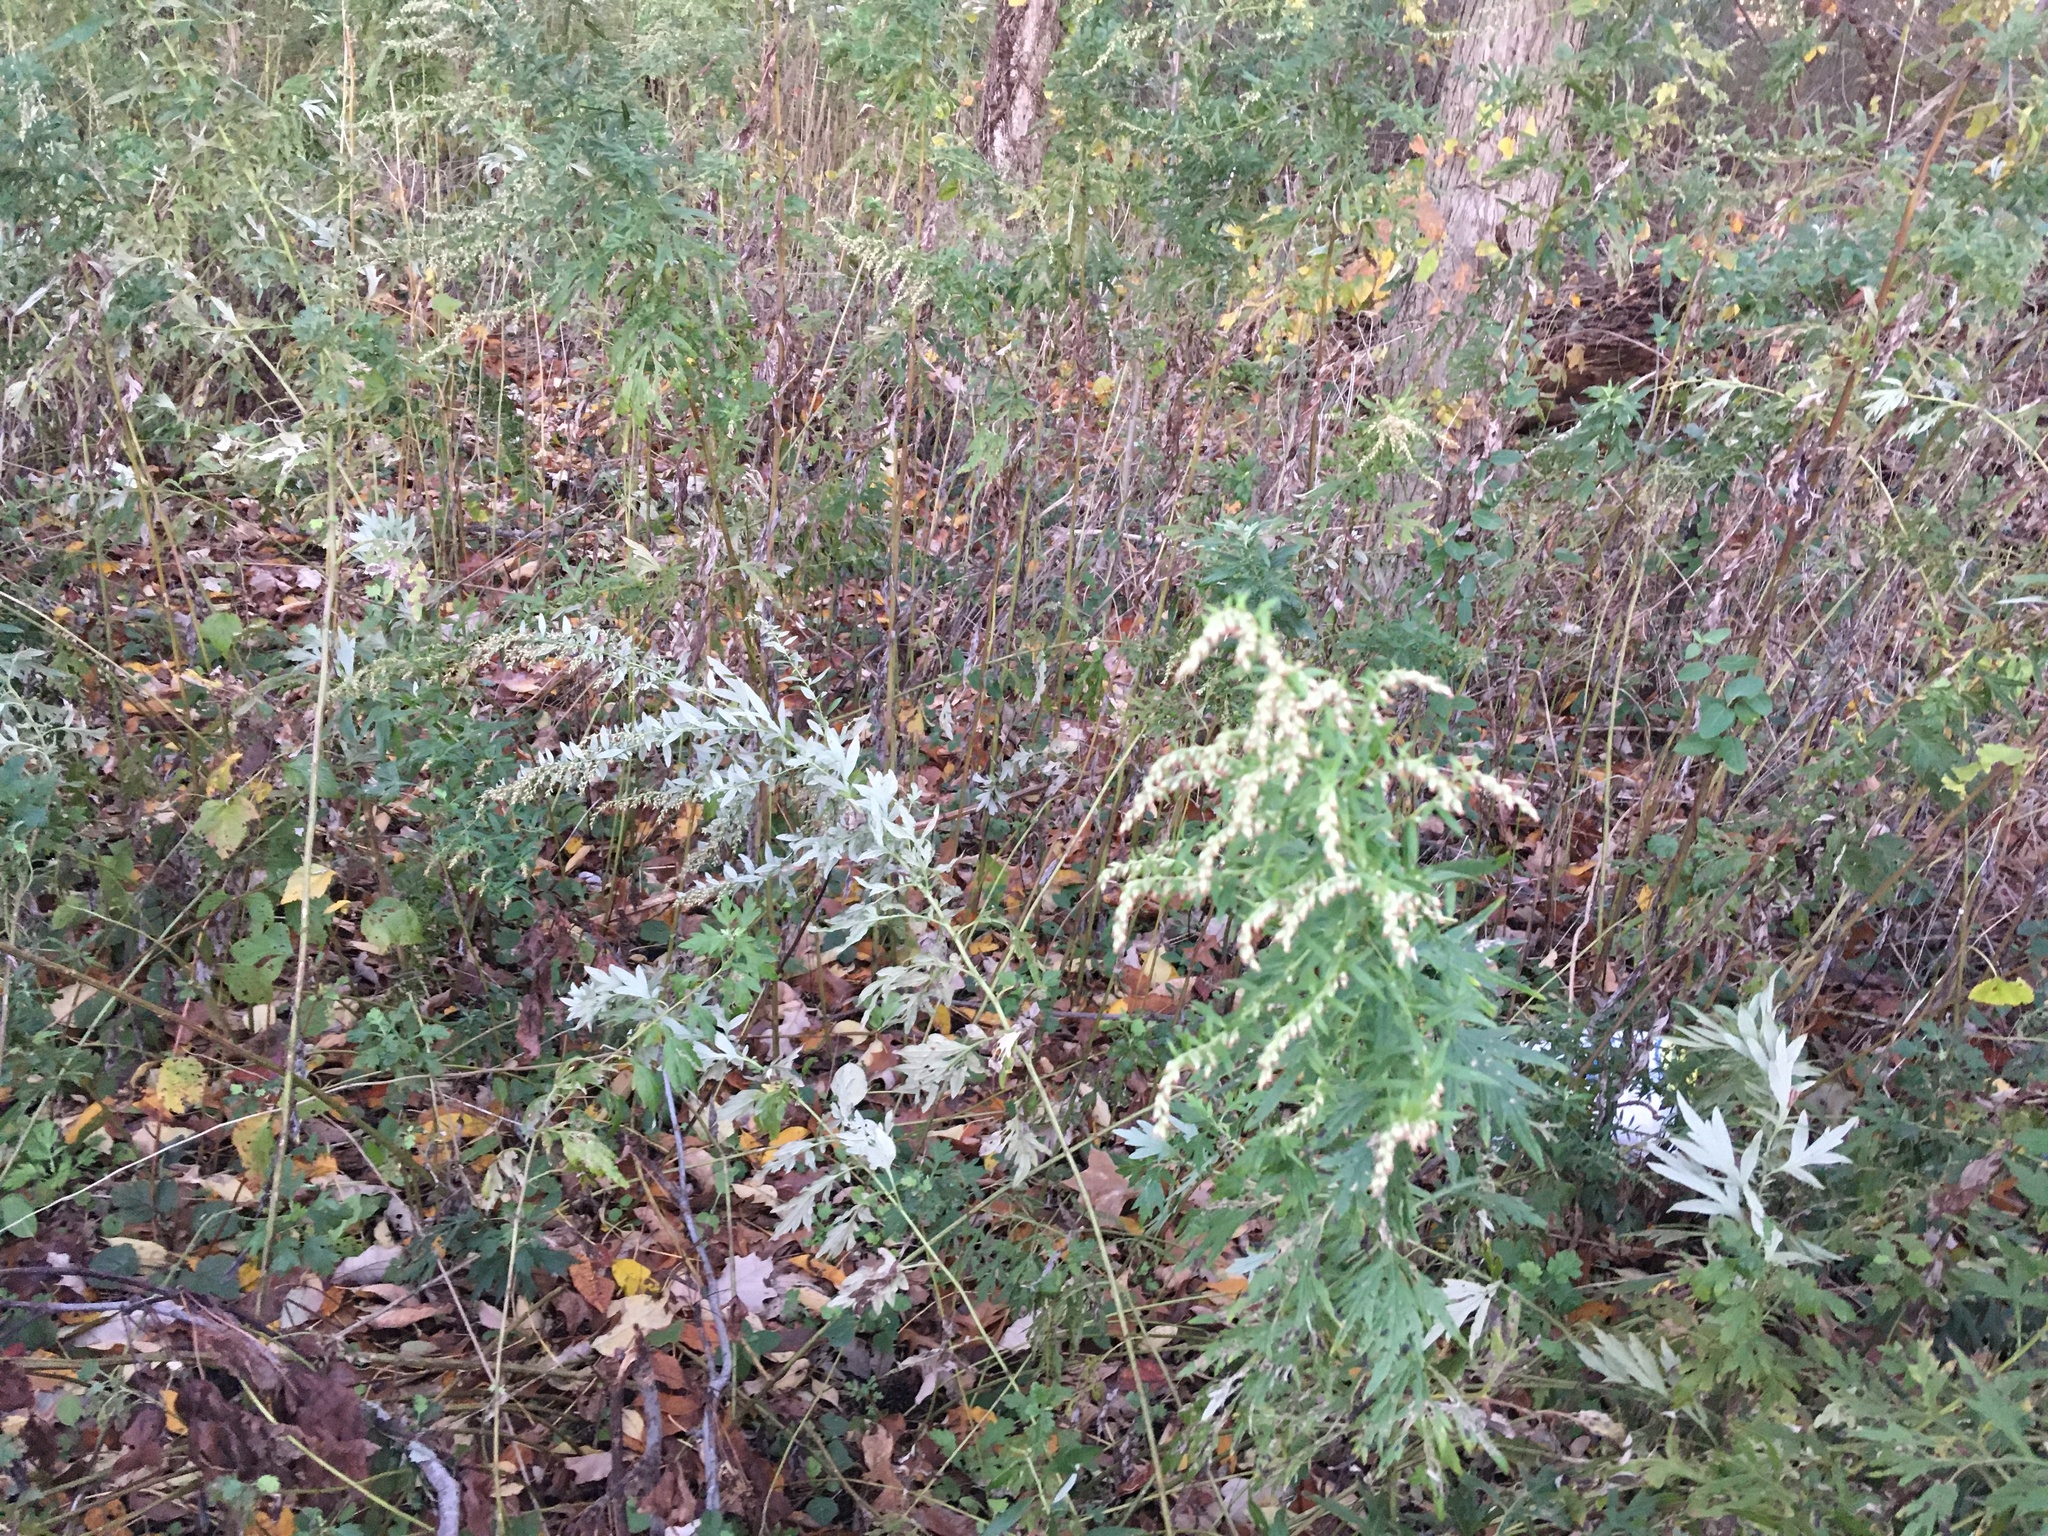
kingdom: Plantae
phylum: Tracheophyta
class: Magnoliopsida
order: Asterales
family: Asteraceae
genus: Artemisia
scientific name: Artemisia vulgaris
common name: Mugwort
